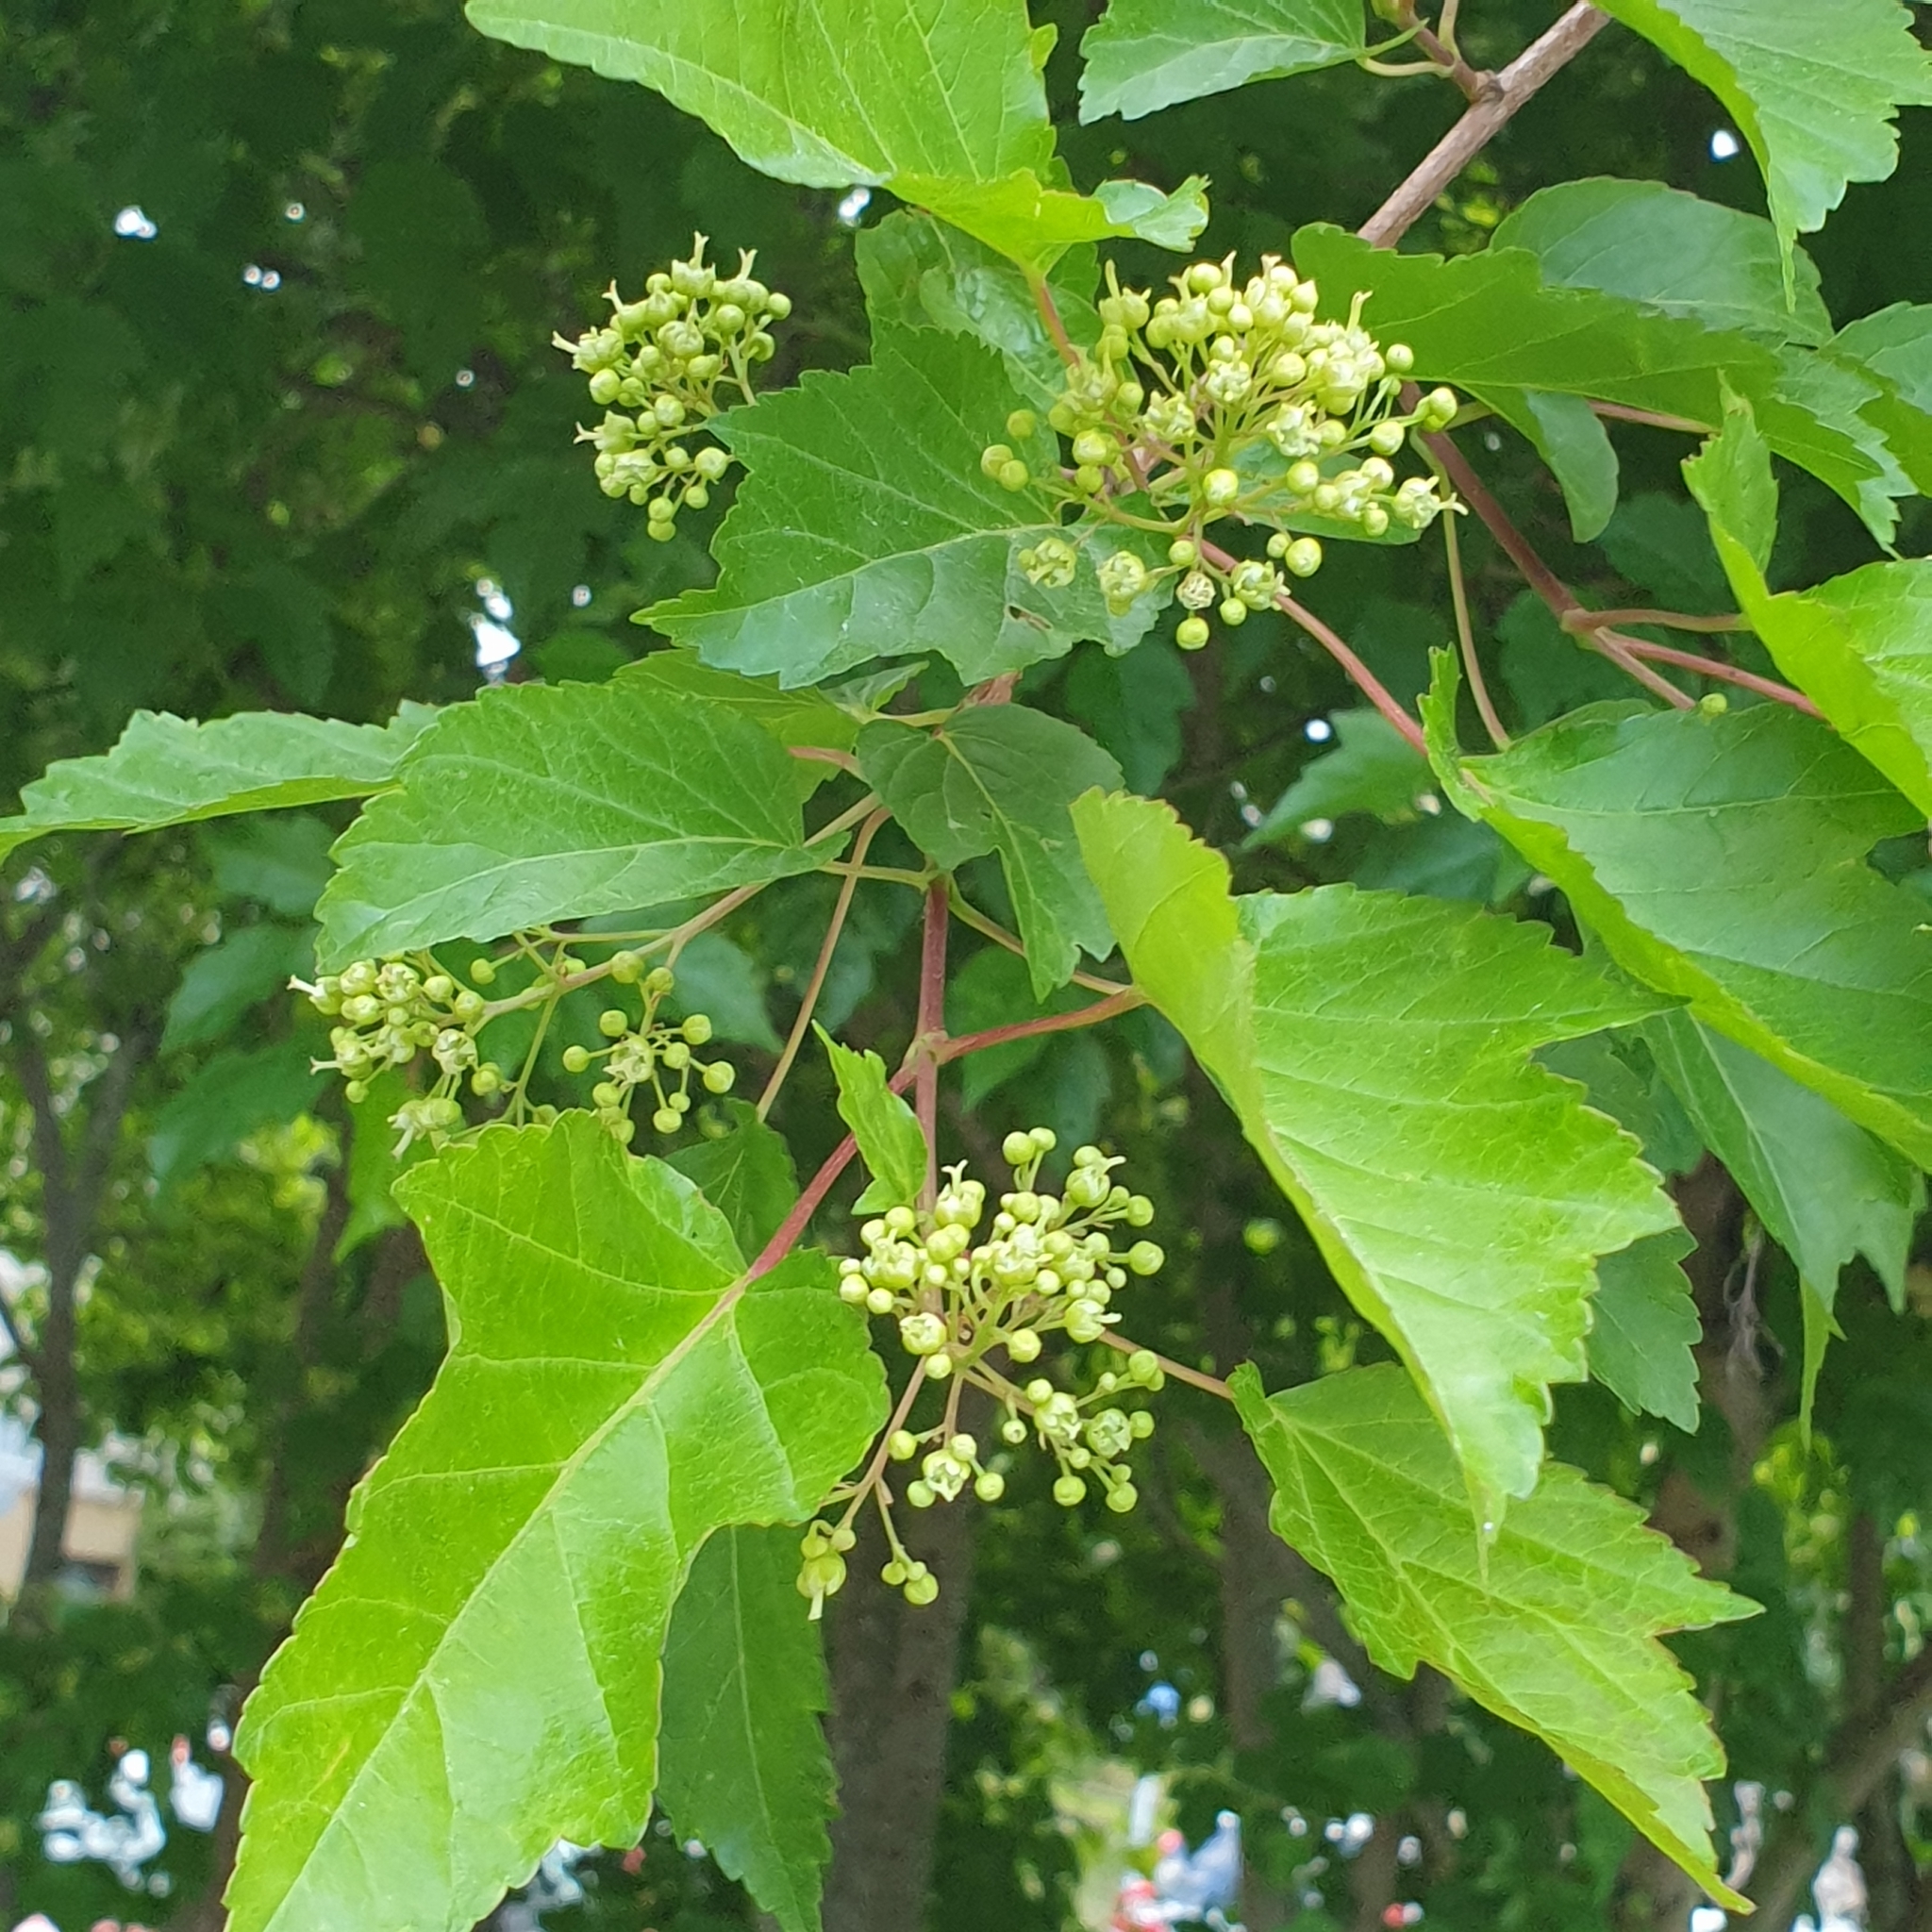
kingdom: Plantae
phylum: Tracheophyta
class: Magnoliopsida
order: Sapindales
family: Sapindaceae
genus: Acer
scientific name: Acer tataricum
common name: Tartar maple
